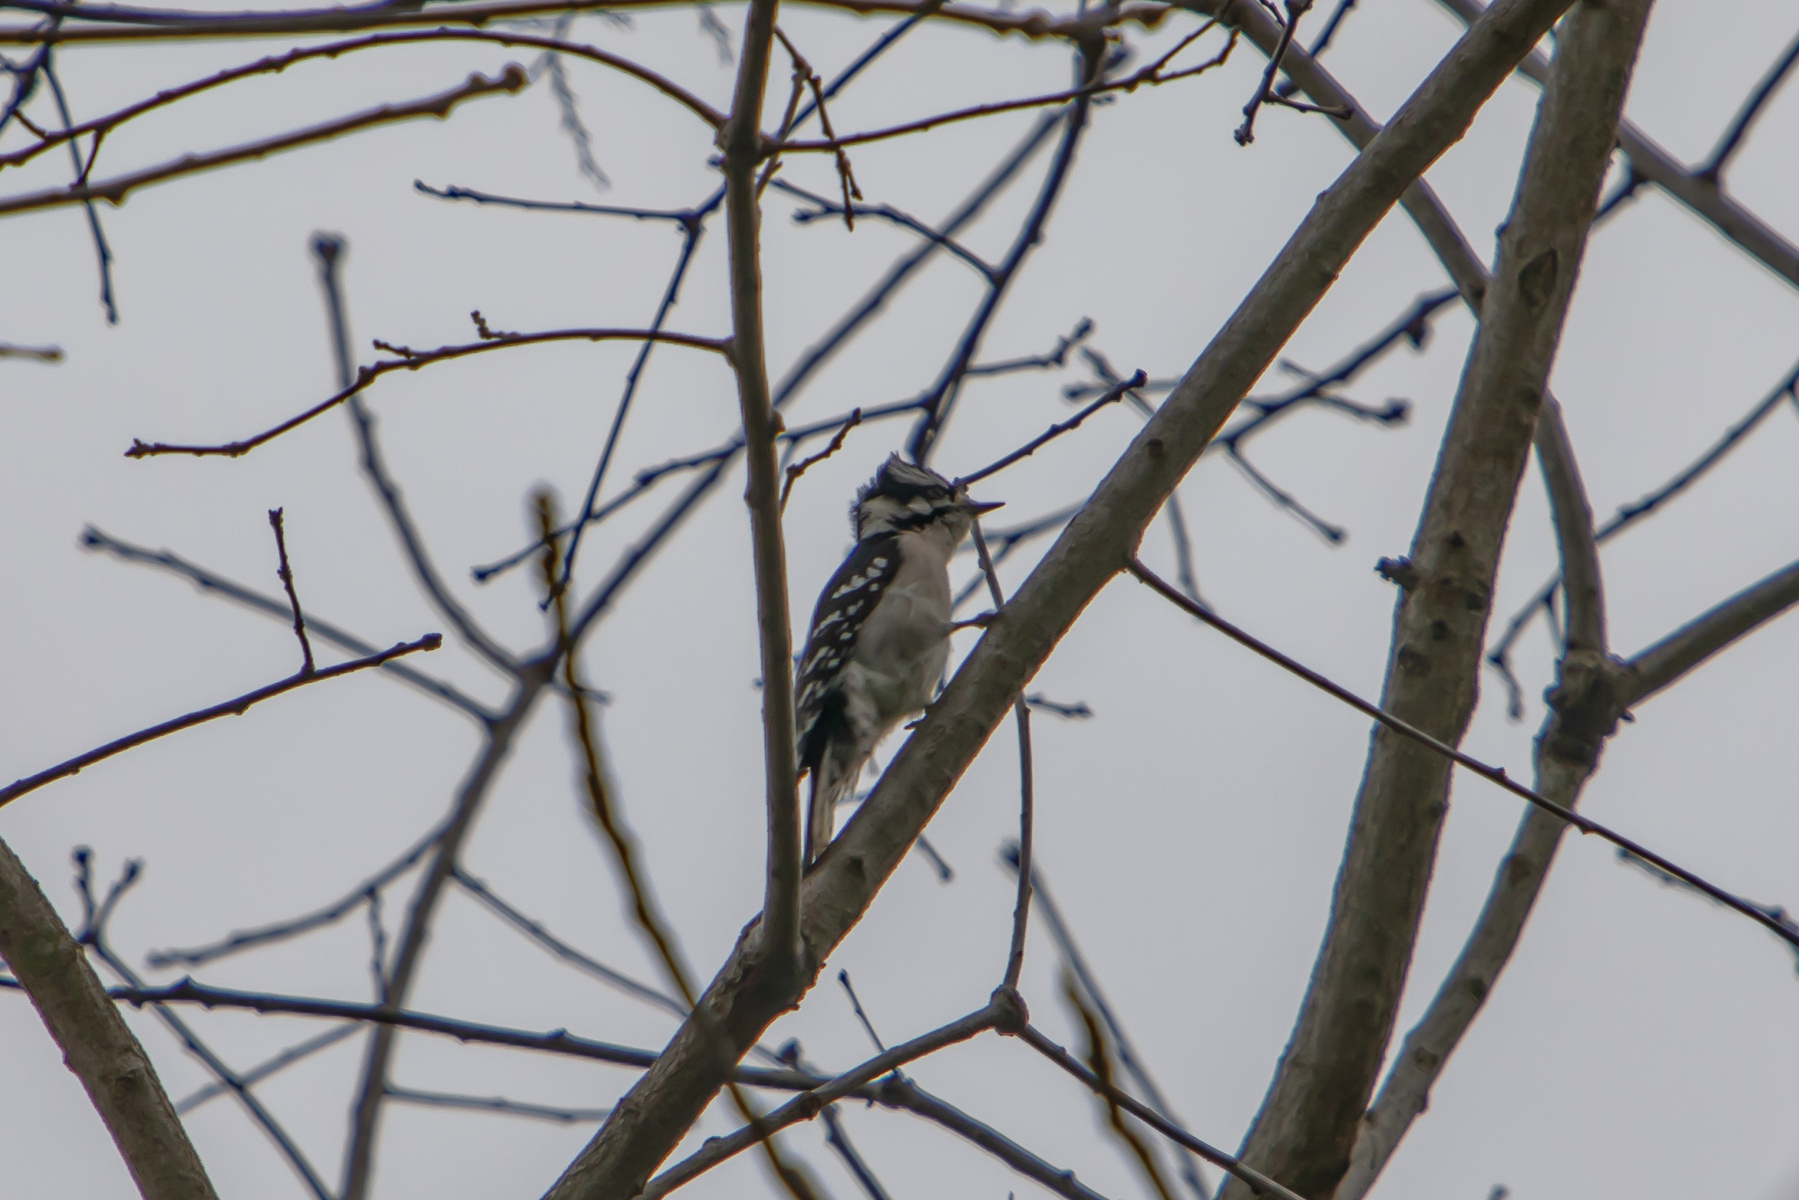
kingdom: Animalia
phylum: Chordata
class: Aves
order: Piciformes
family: Picidae
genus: Dryobates
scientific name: Dryobates pubescens
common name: Downy woodpecker
